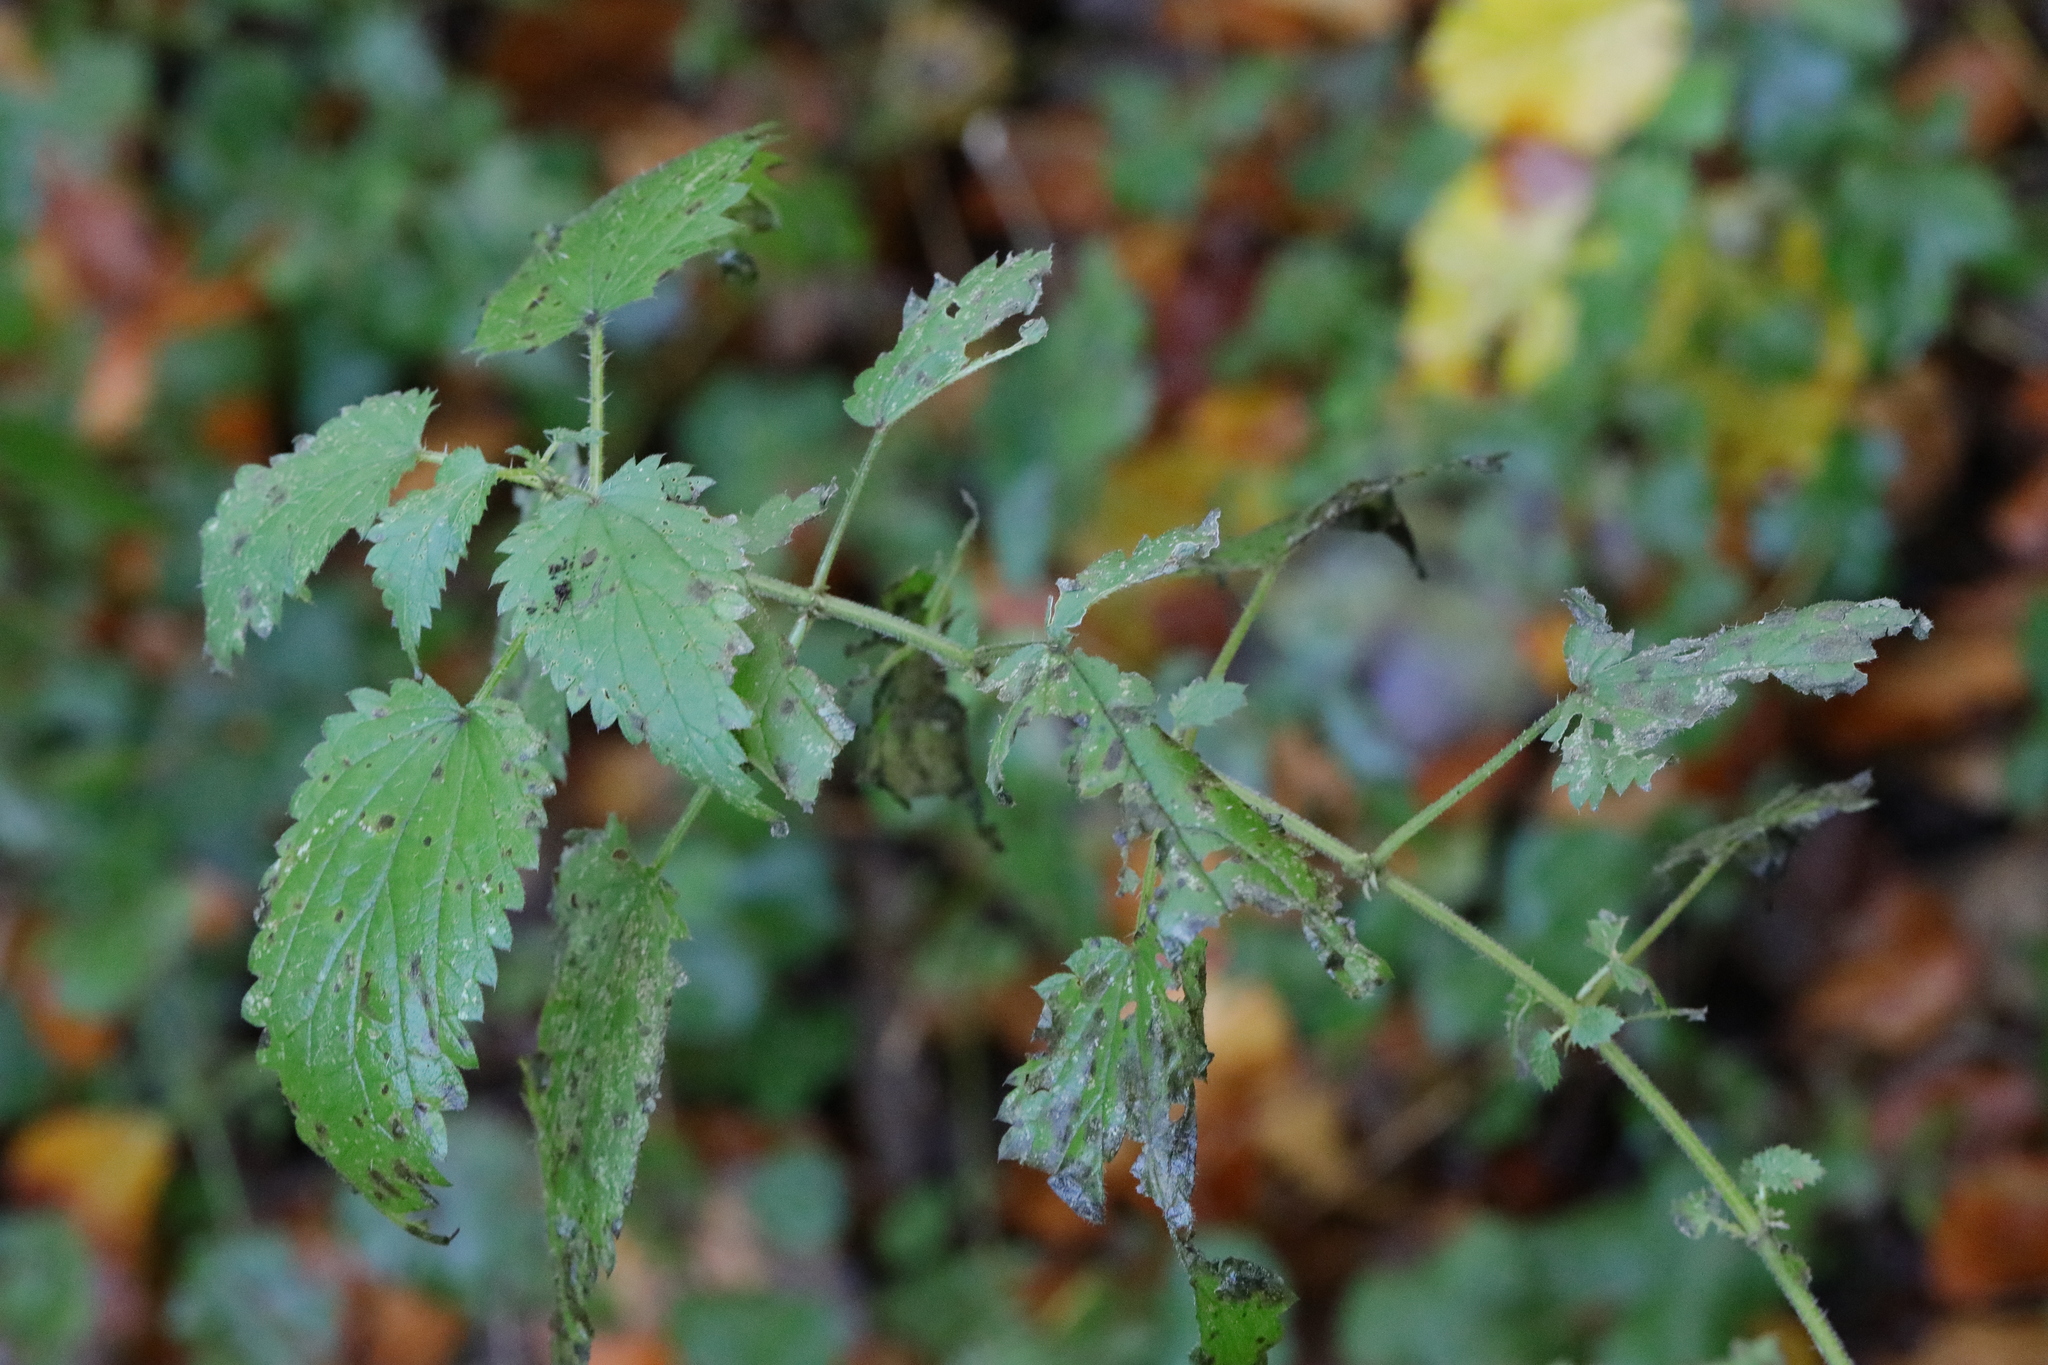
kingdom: Plantae
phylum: Tracheophyta
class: Magnoliopsida
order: Rosales
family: Urticaceae
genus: Urtica
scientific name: Urtica dioica
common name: Common nettle
